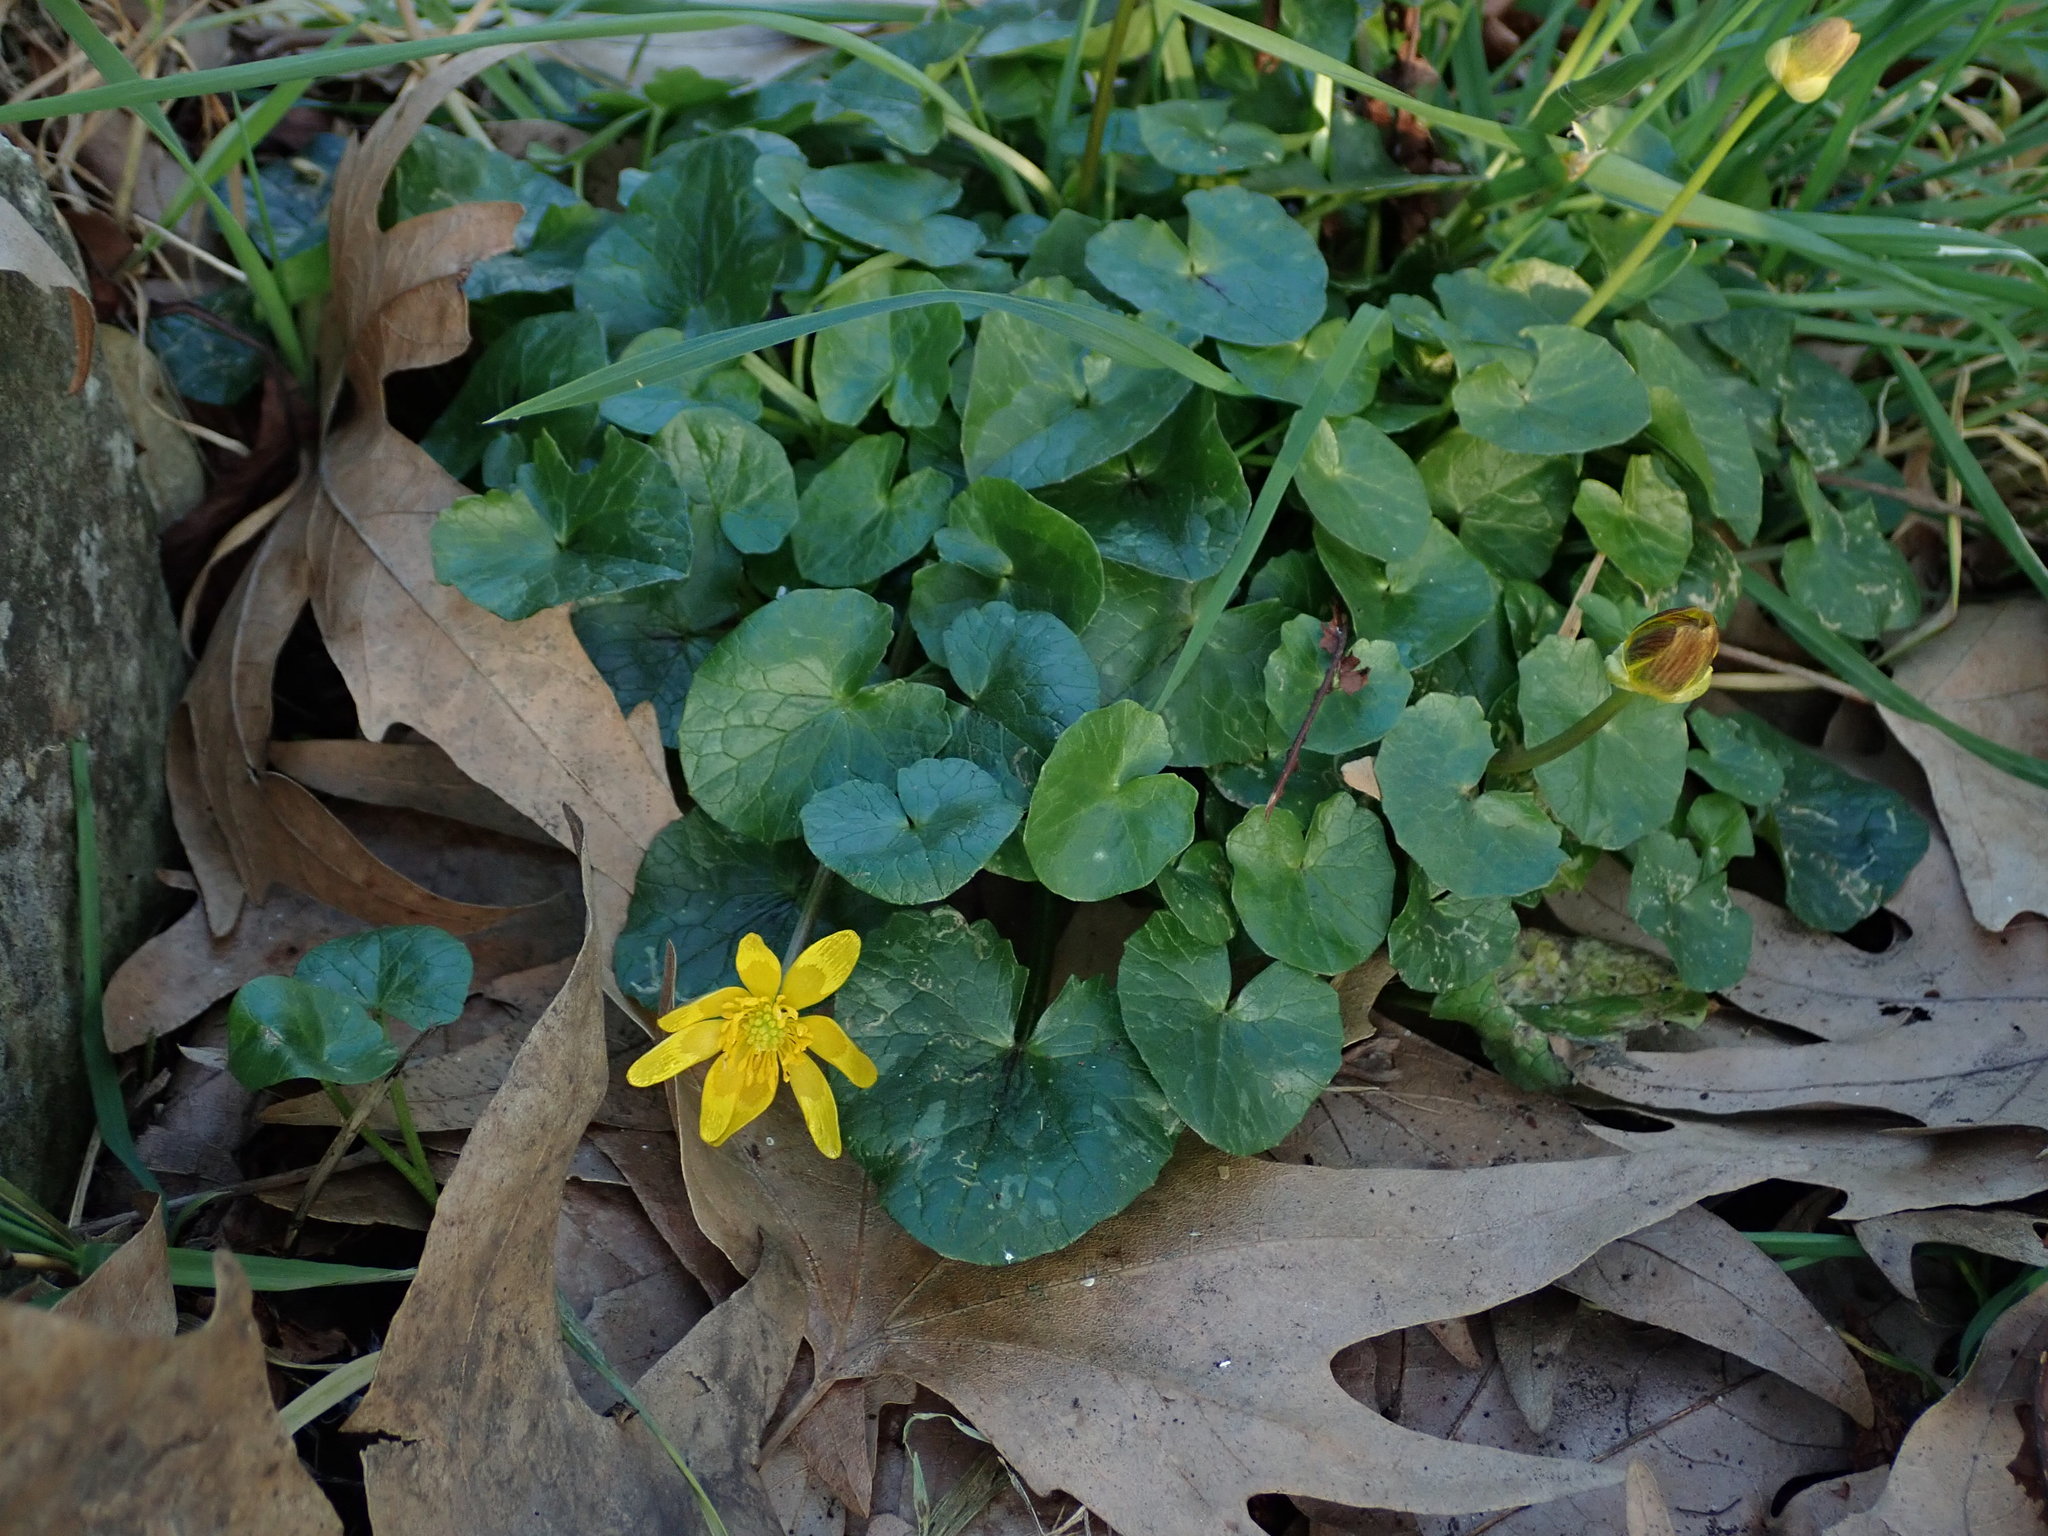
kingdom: Plantae
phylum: Tracheophyta
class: Magnoliopsida
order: Ranunculales
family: Ranunculaceae
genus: Ficaria
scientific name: Ficaria verna
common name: Lesser celandine
